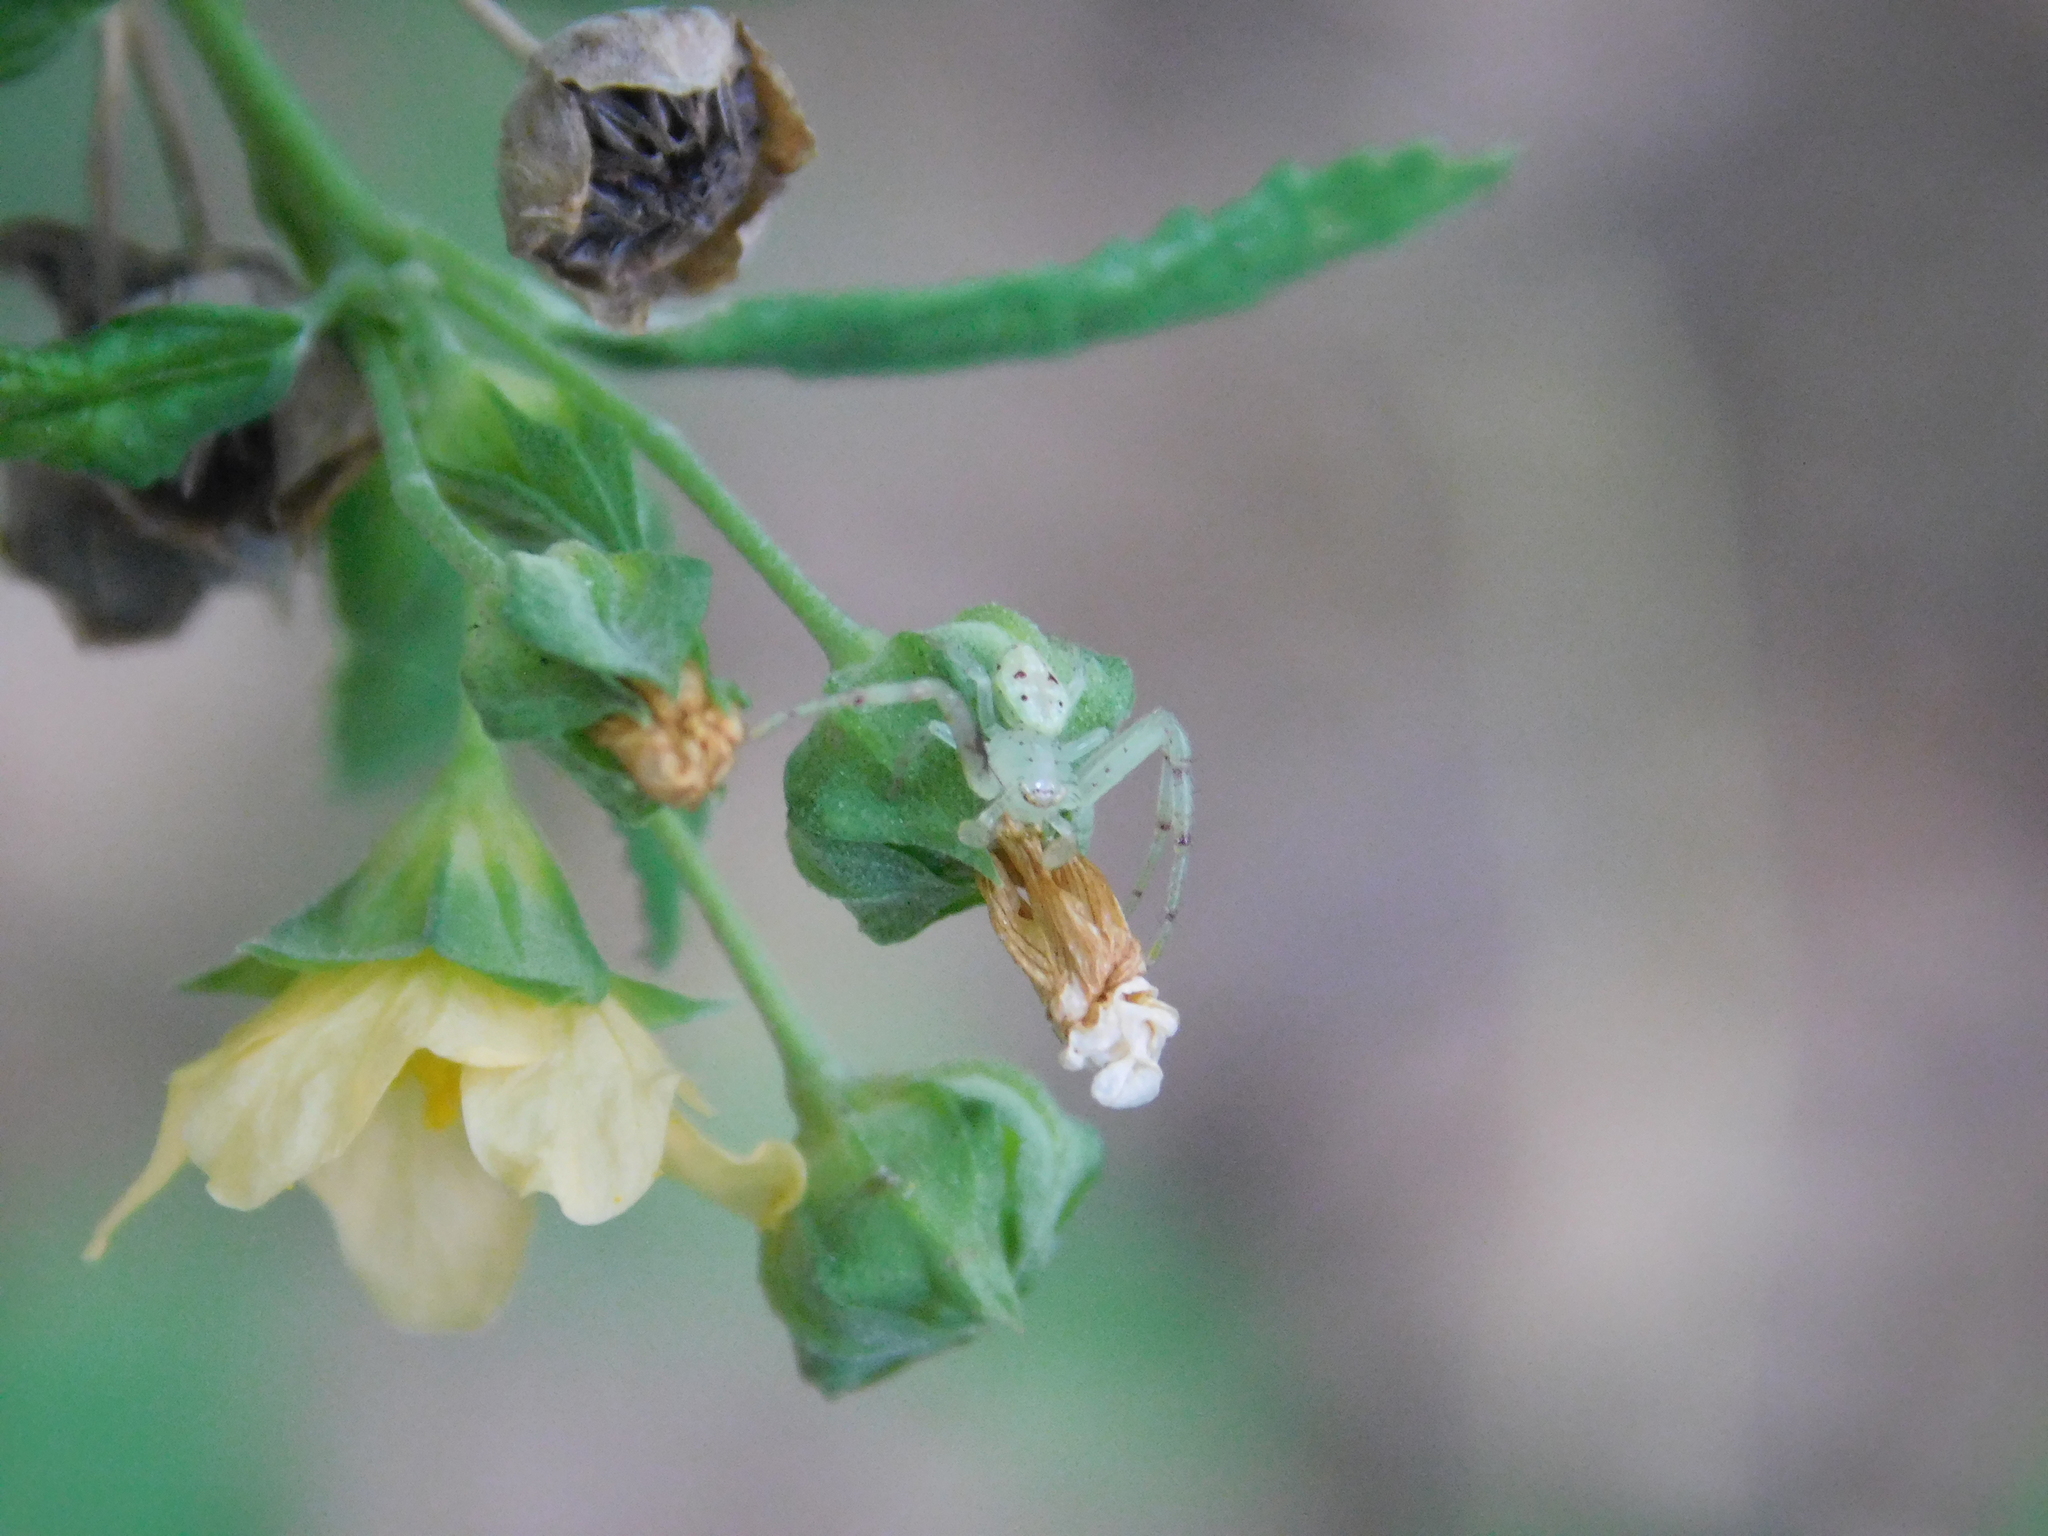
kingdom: Animalia
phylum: Arthropoda
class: Arachnida
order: Araneae
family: Thomisidae
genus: Misumenops
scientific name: Misumenops
